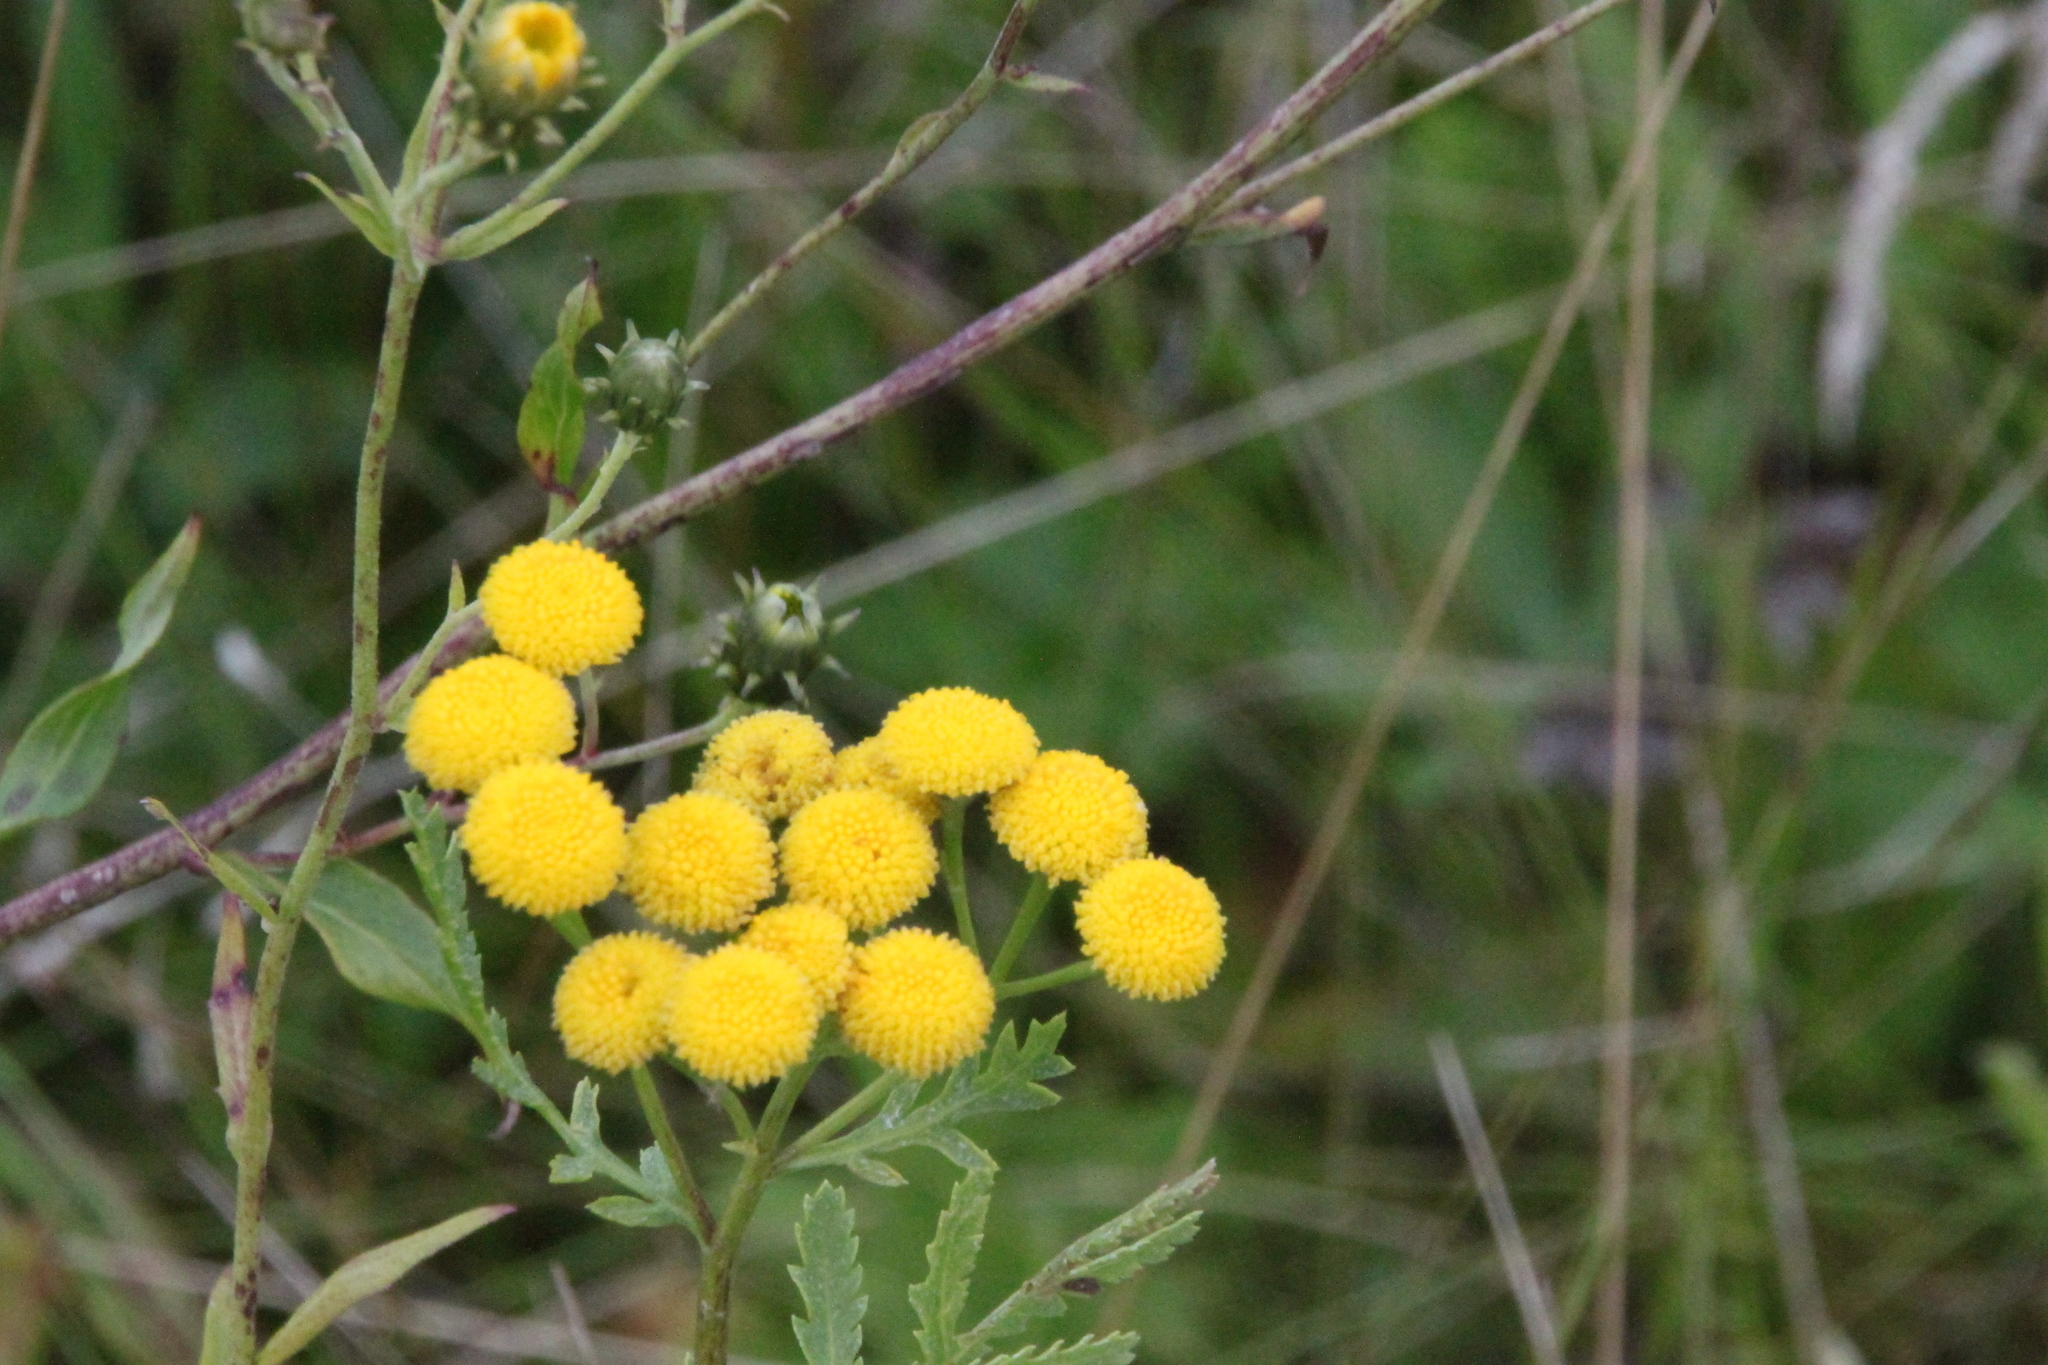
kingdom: Plantae
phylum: Tracheophyta
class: Magnoliopsida
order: Asterales
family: Asteraceae
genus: Tanacetum
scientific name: Tanacetum vulgare
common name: Common tansy
